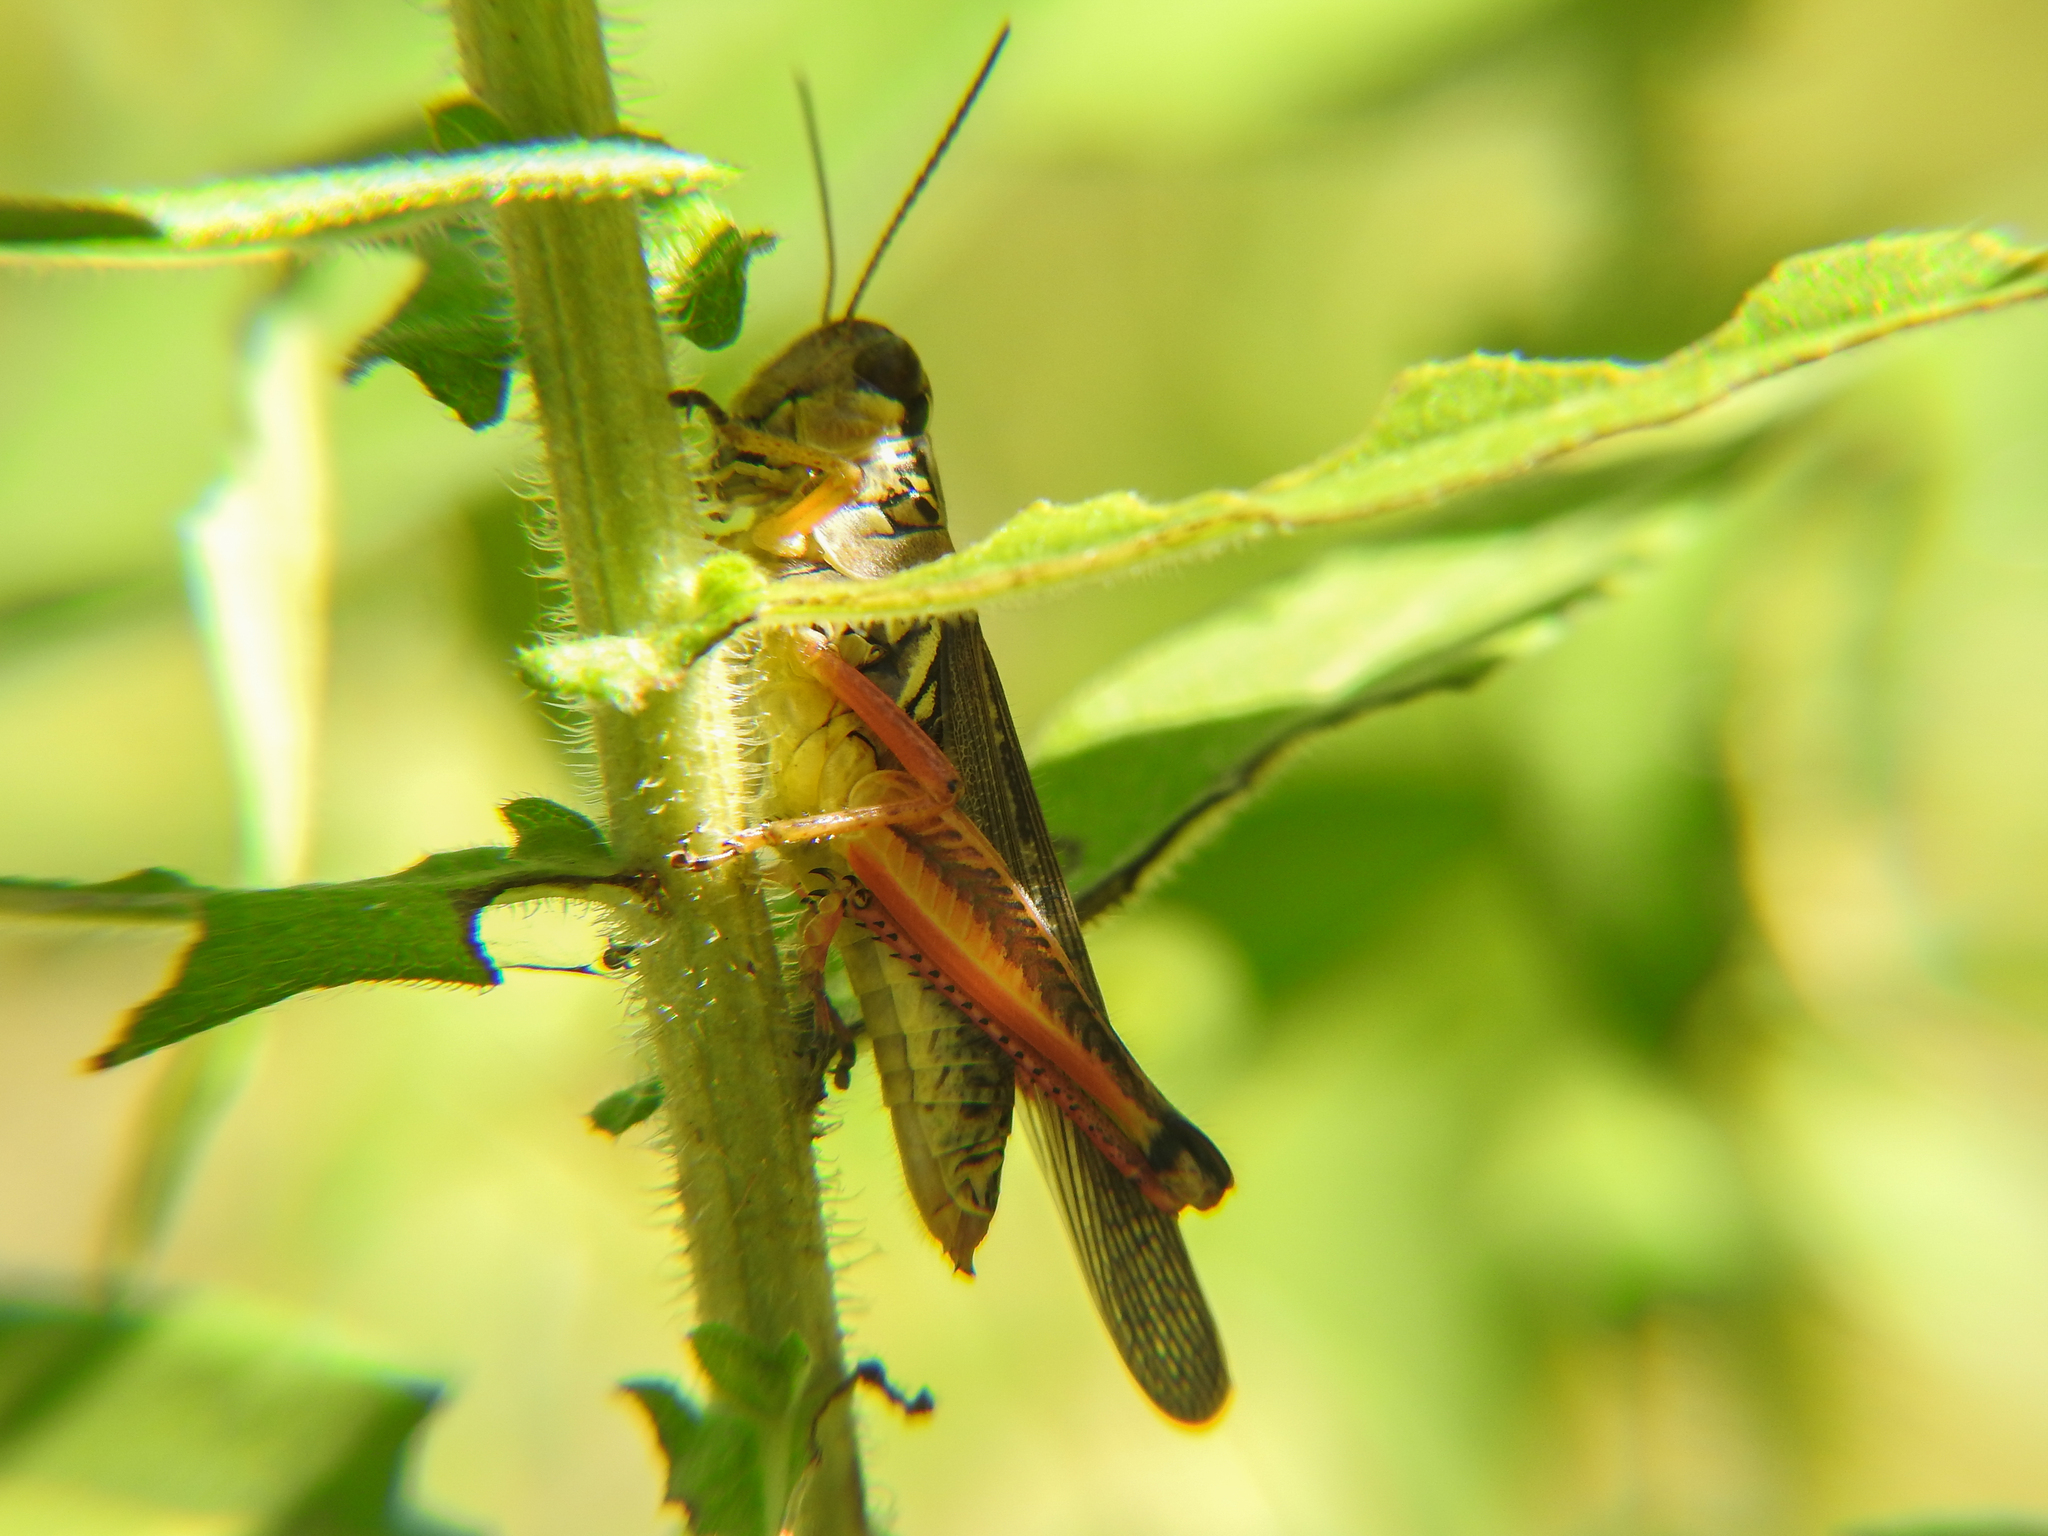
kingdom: Animalia
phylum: Arthropoda
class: Insecta
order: Orthoptera
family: Acrididae
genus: Melanoplus
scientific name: Melanoplus femurrubrum
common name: Red-legged grasshopper
